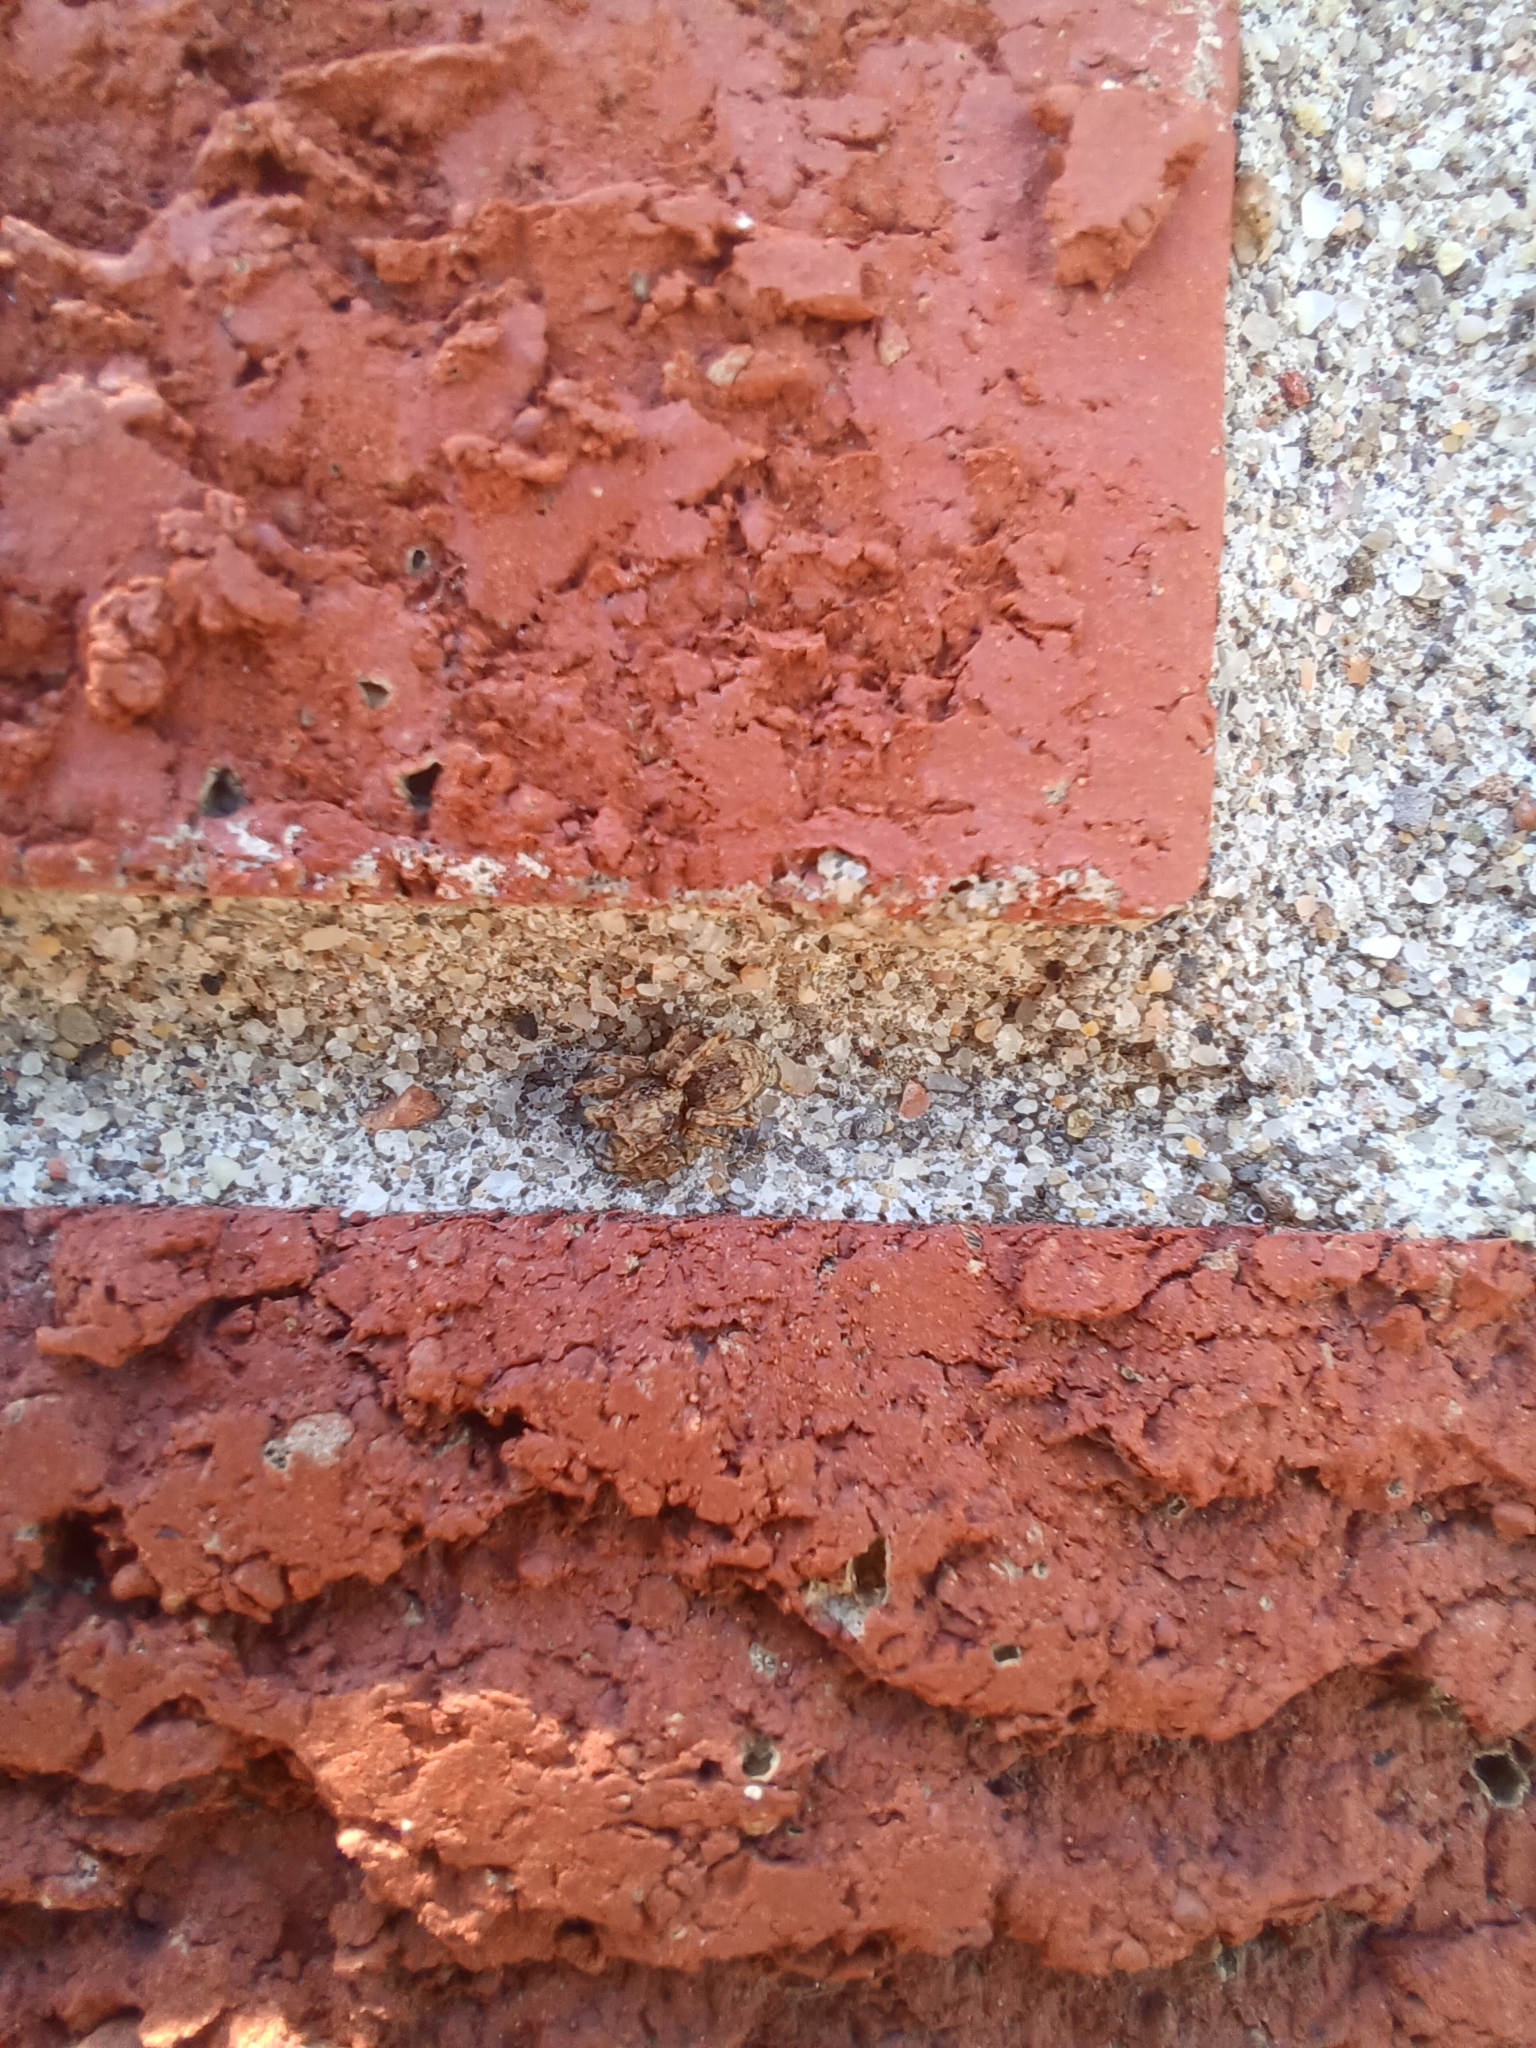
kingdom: Animalia
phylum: Arthropoda
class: Arachnida
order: Araneae
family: Salticidae
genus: Attulus
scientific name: Attulus fasciger
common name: Asiatic wall jumping spider
